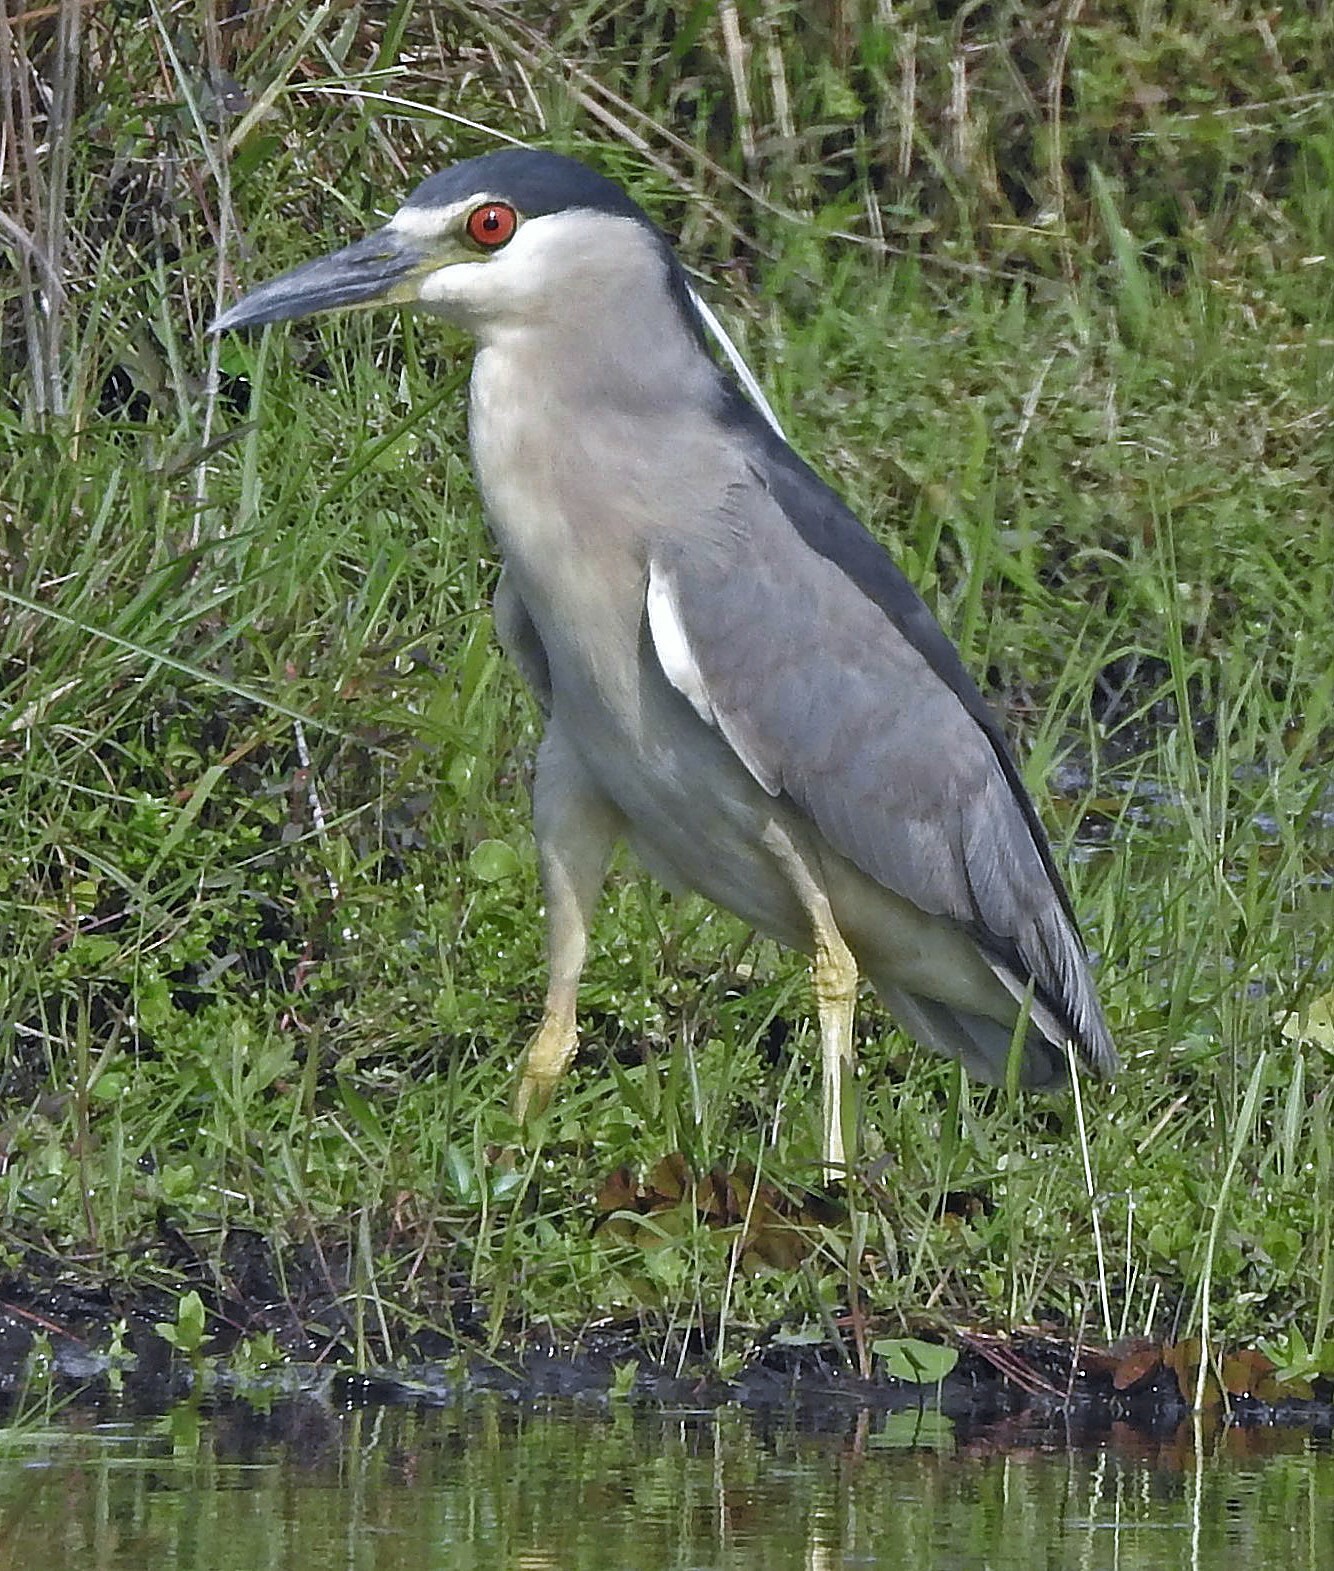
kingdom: Animalia
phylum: Chordata
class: Aves
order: Pelecaniformes
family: Ardeidae
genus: Nycticorax
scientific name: Nycticorax nycticorax
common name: Black-crowned night heron
